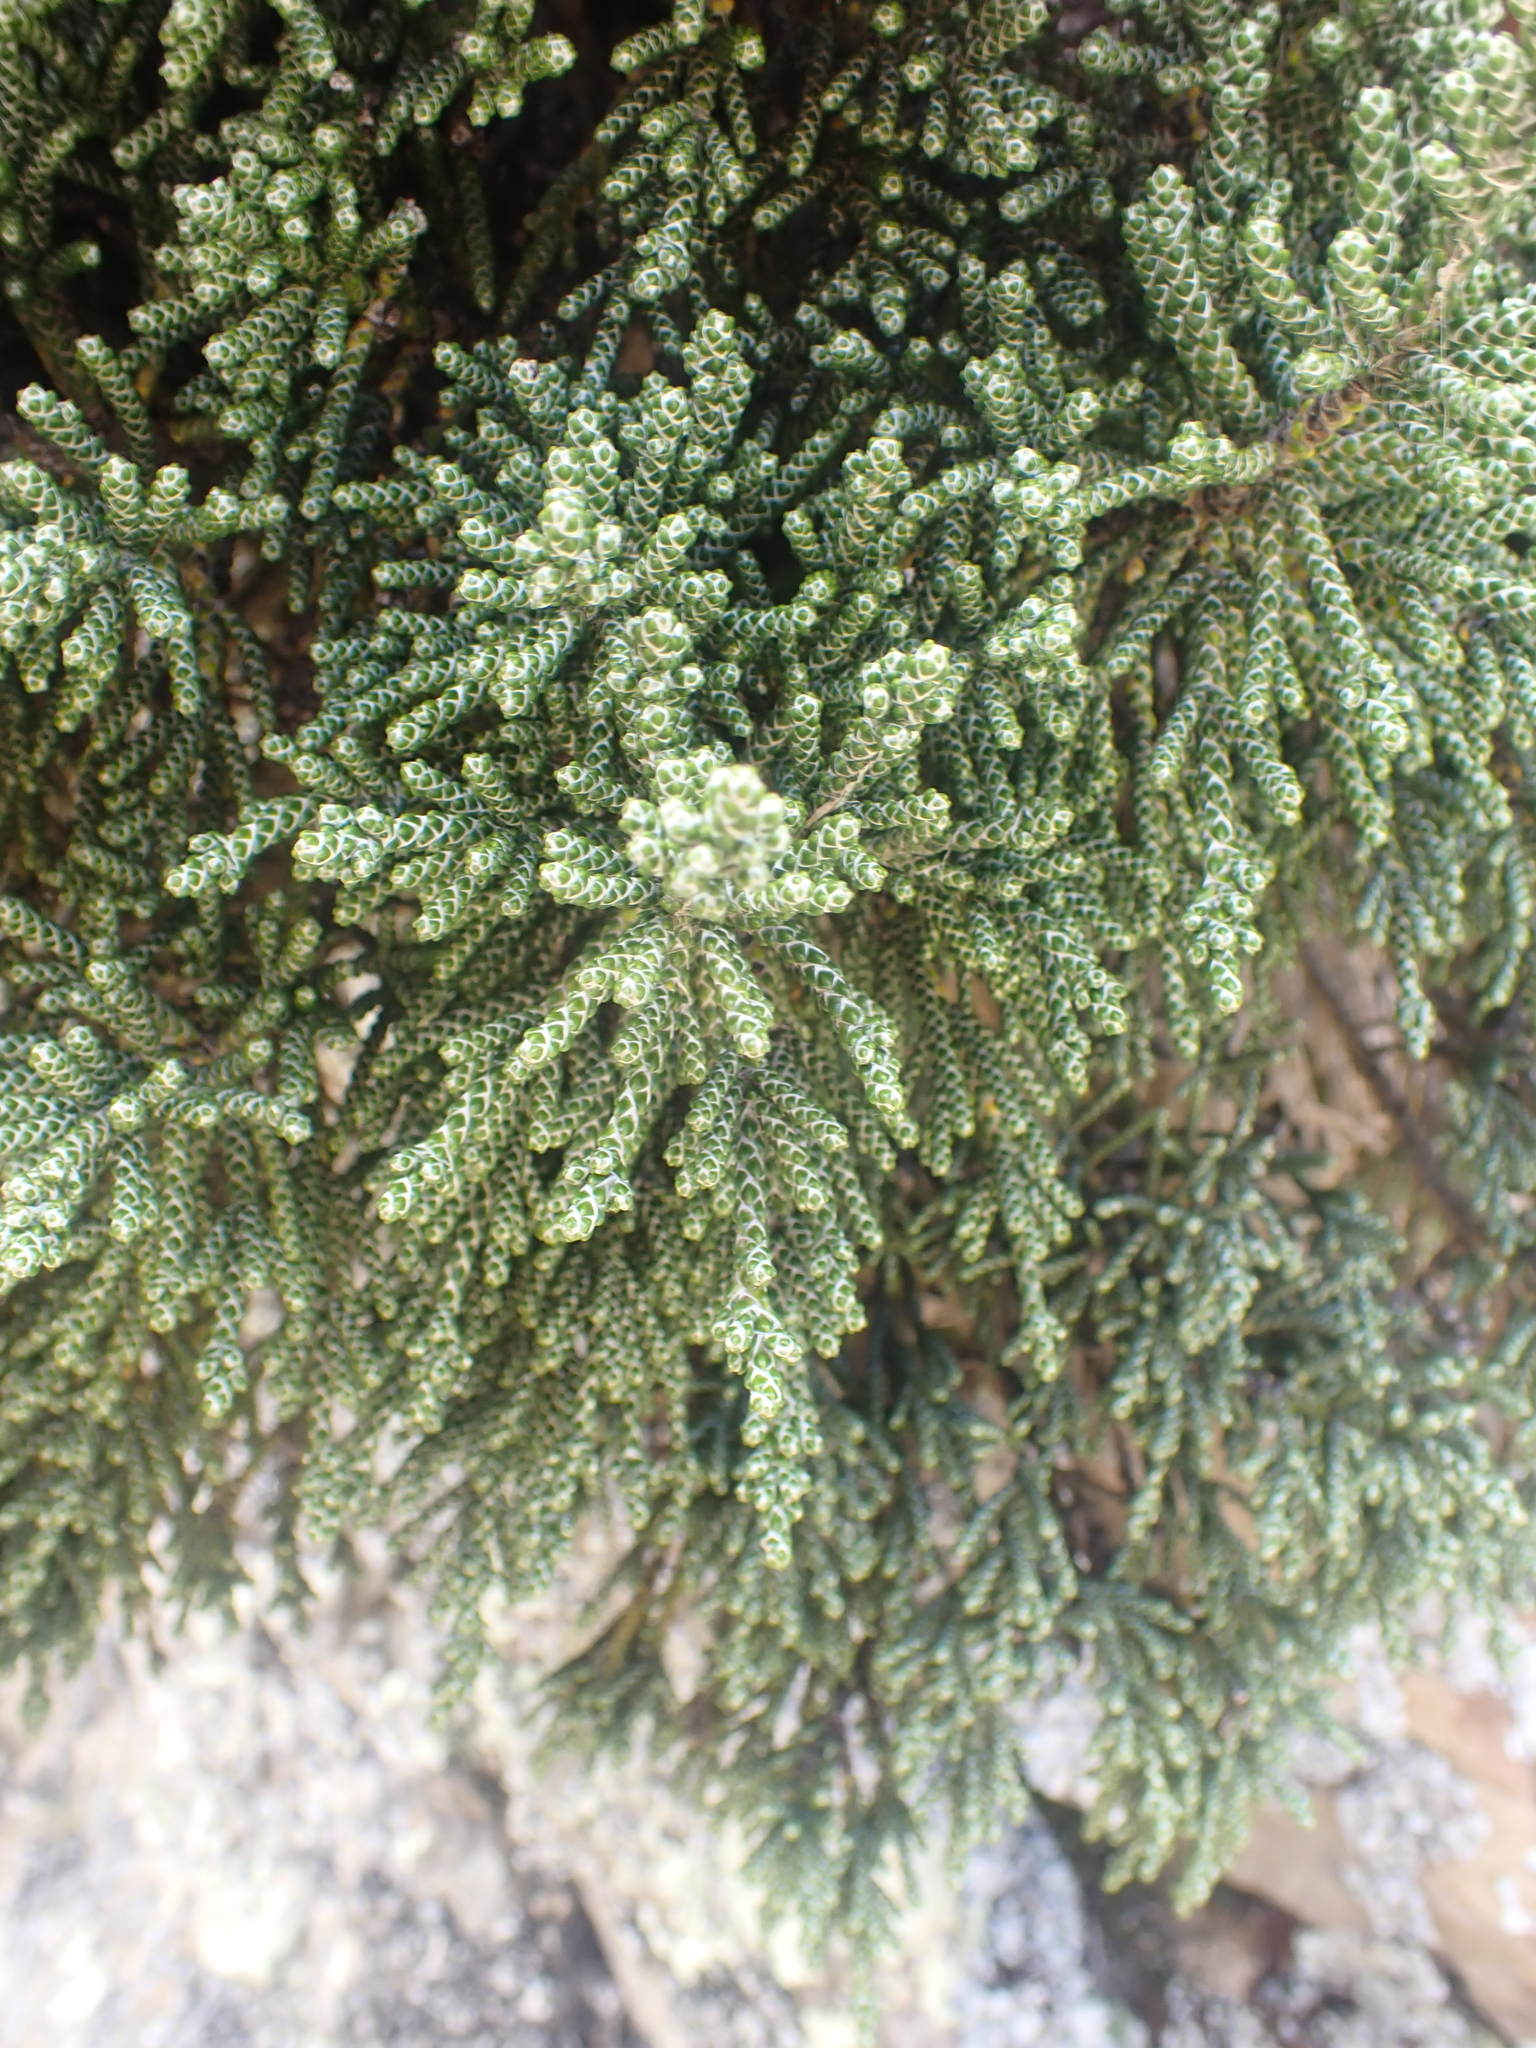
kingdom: Plantae
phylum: Tracheophyta
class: Magnoliopsida
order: Asterales
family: Asteraceae
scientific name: Asteraceae
